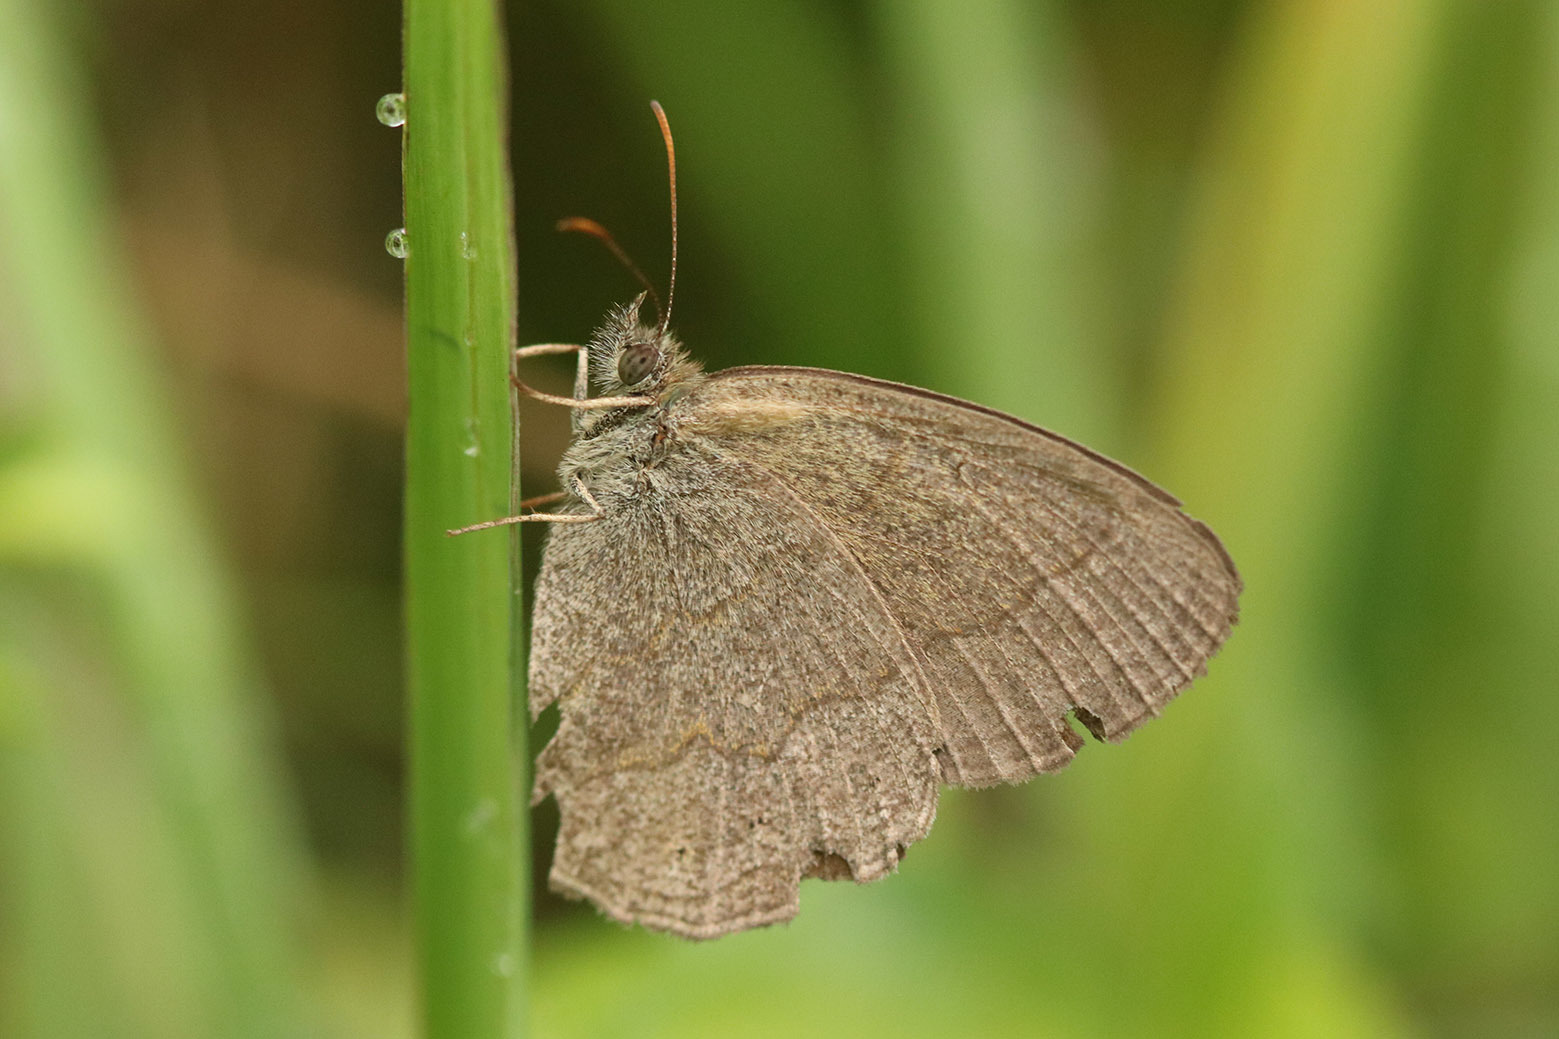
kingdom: Animalia
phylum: Arthropoda
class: Insecta
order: Lepidoptera
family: Nymphalidae
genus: Yphthimoides
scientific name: Yphthimoides celmis
